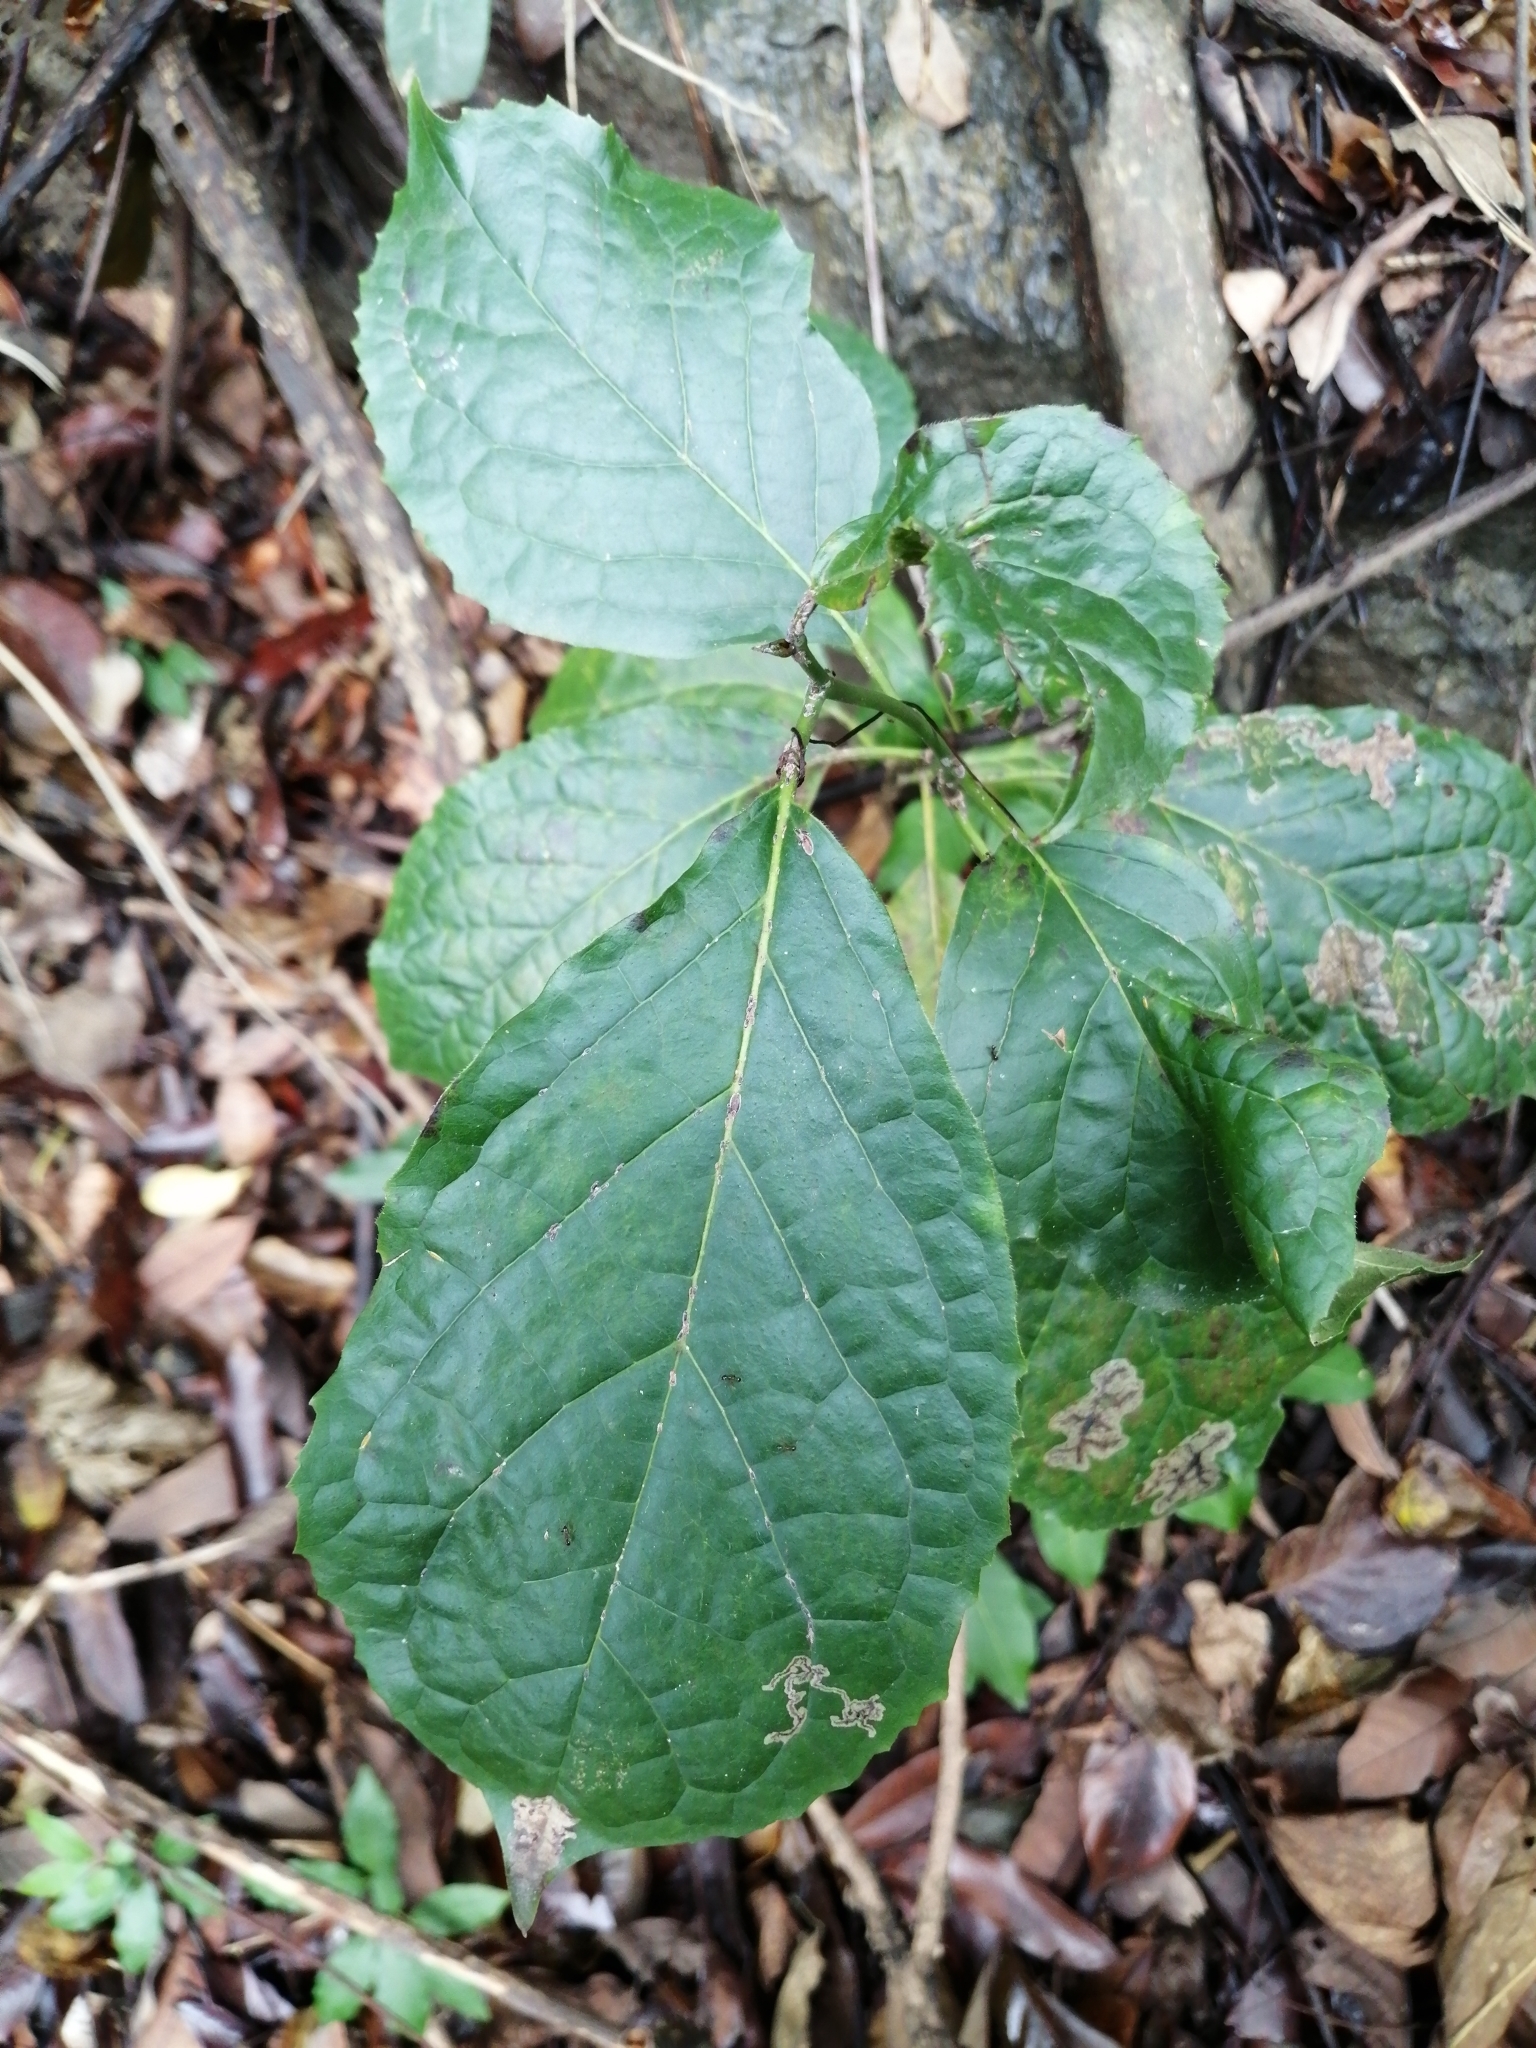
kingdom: Plantae
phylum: Tracheophyta
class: Magnoliopsida
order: Boraginales
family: Ehretiaceae
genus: Ehretia
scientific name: Ehretia resinosa
